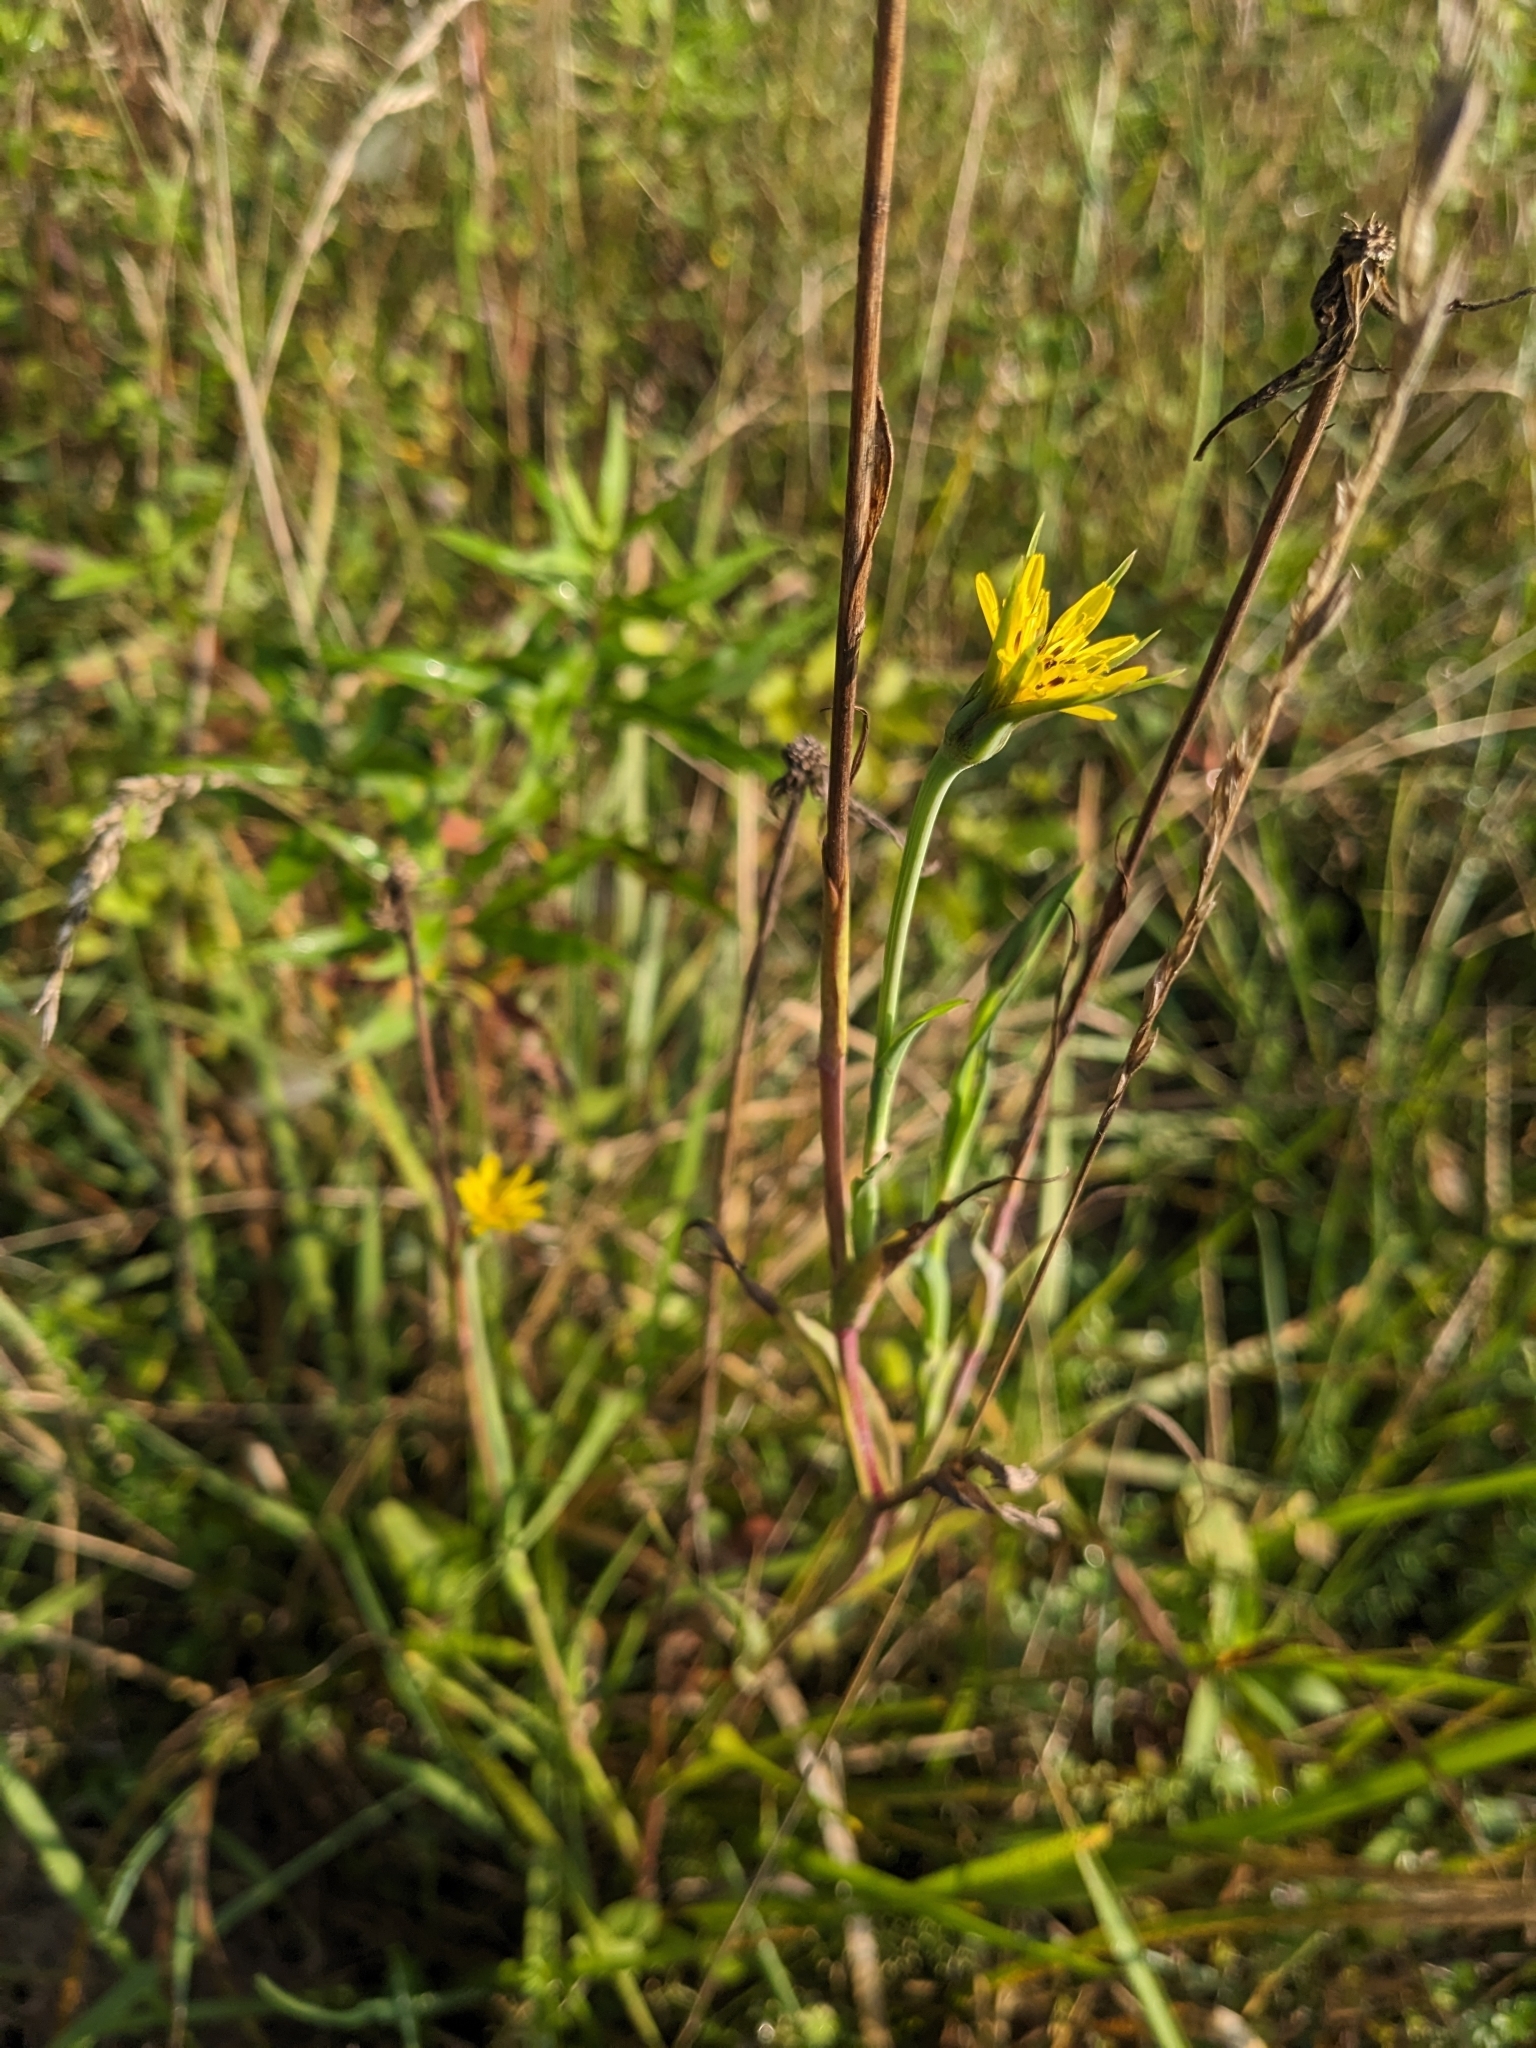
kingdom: Plantae
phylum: Tracheophyta
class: Magnoliopsida
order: Asterales
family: Asteraceae
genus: Tragopogon
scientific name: Tragopogon dubius
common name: Yellow salsify
